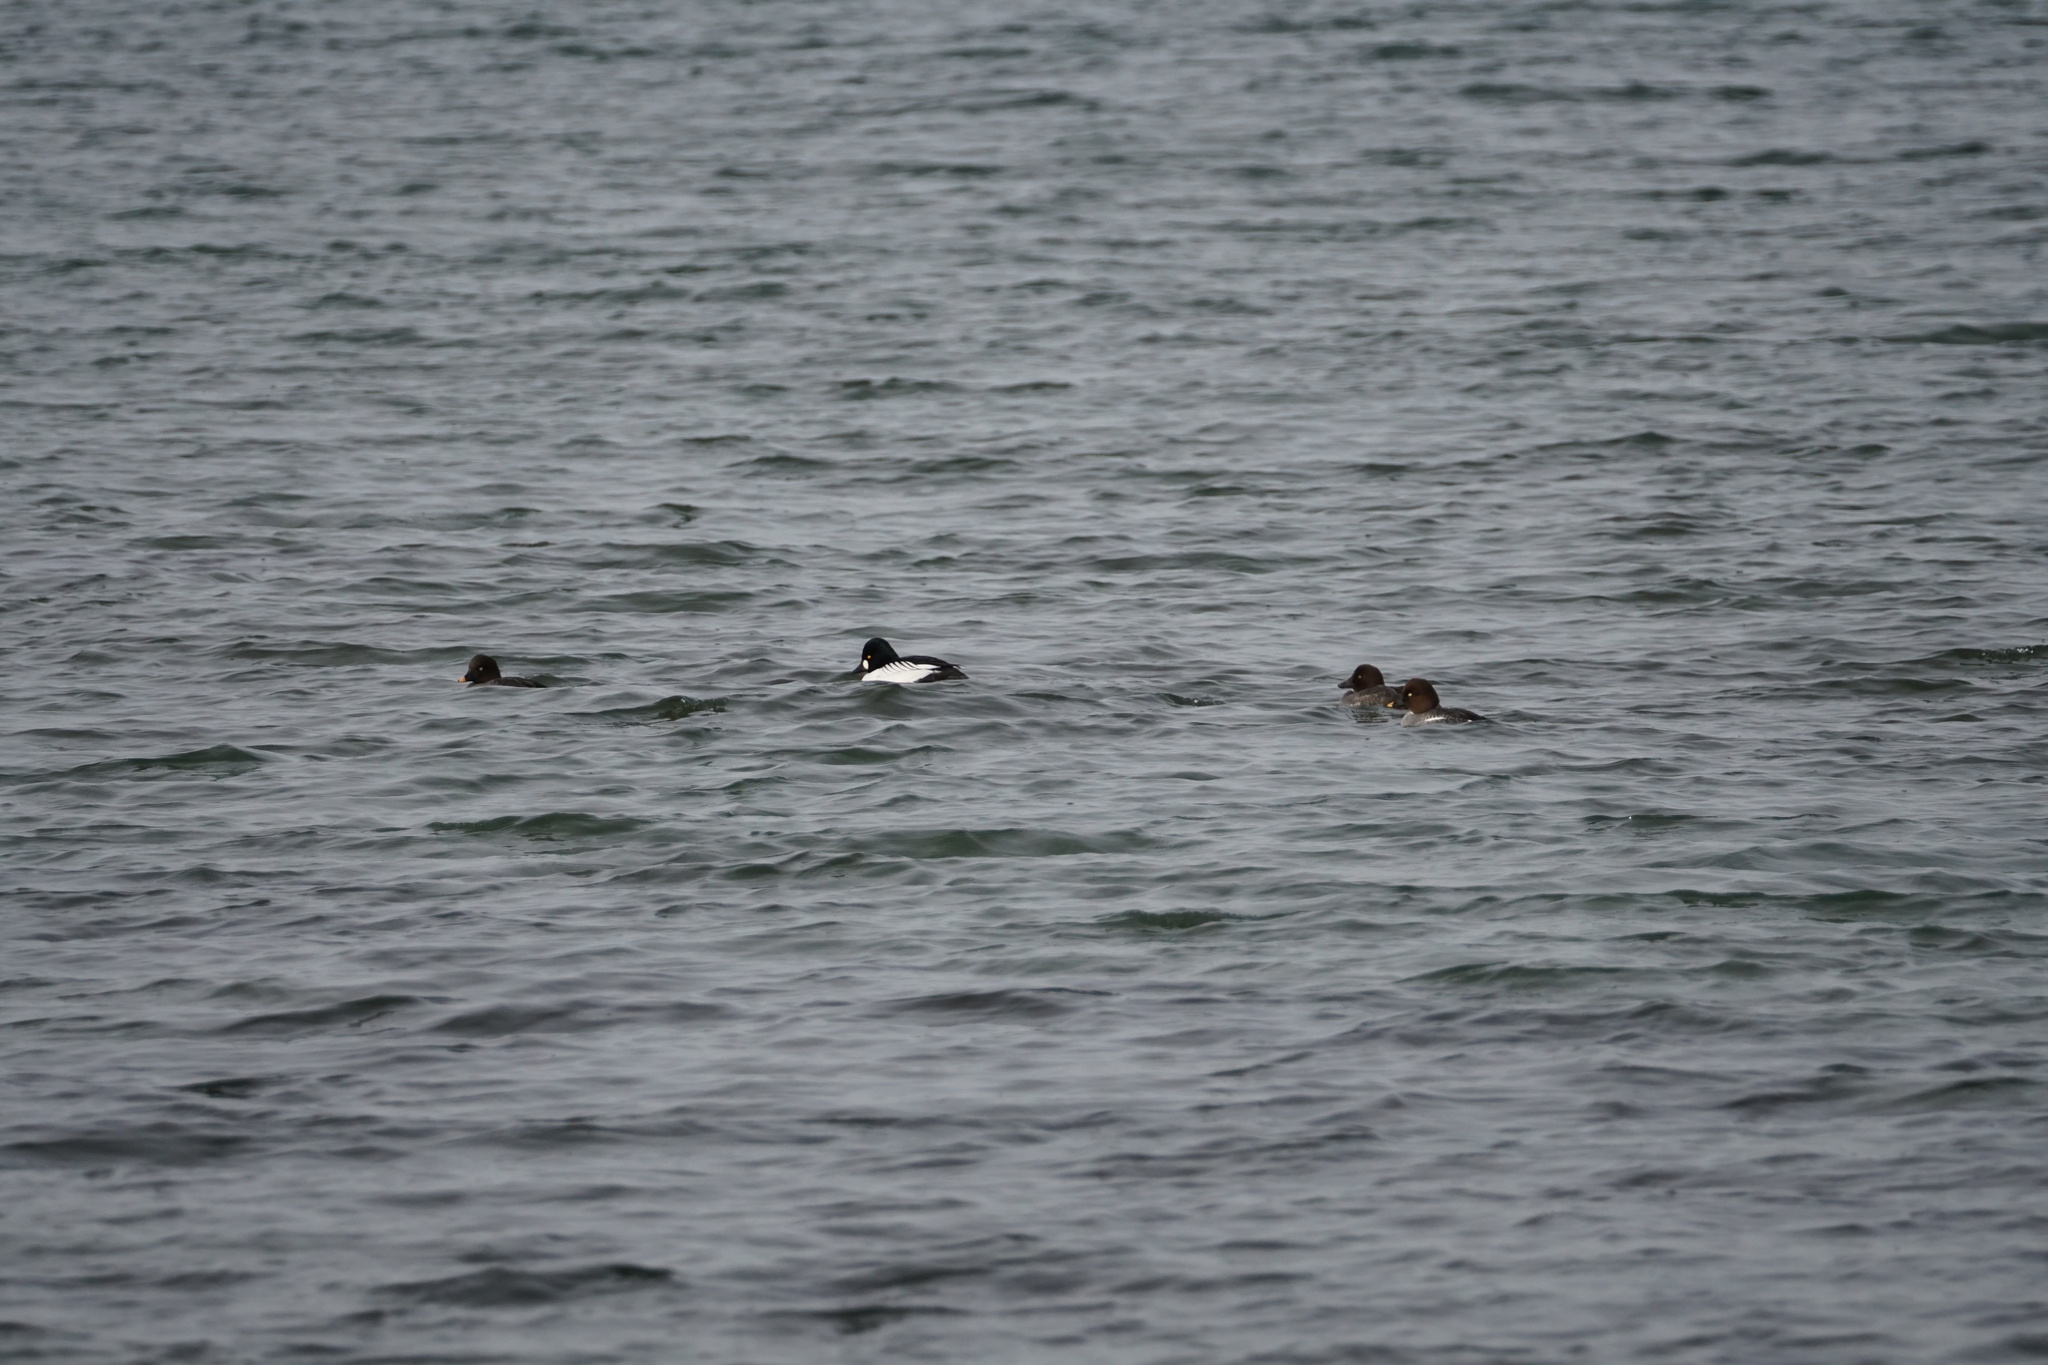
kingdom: Animalia
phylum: Chordata
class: Aves
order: Anseriformes
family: Anatidae
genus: Bucephala
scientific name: Bucephala clangula
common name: Common goldeneye
